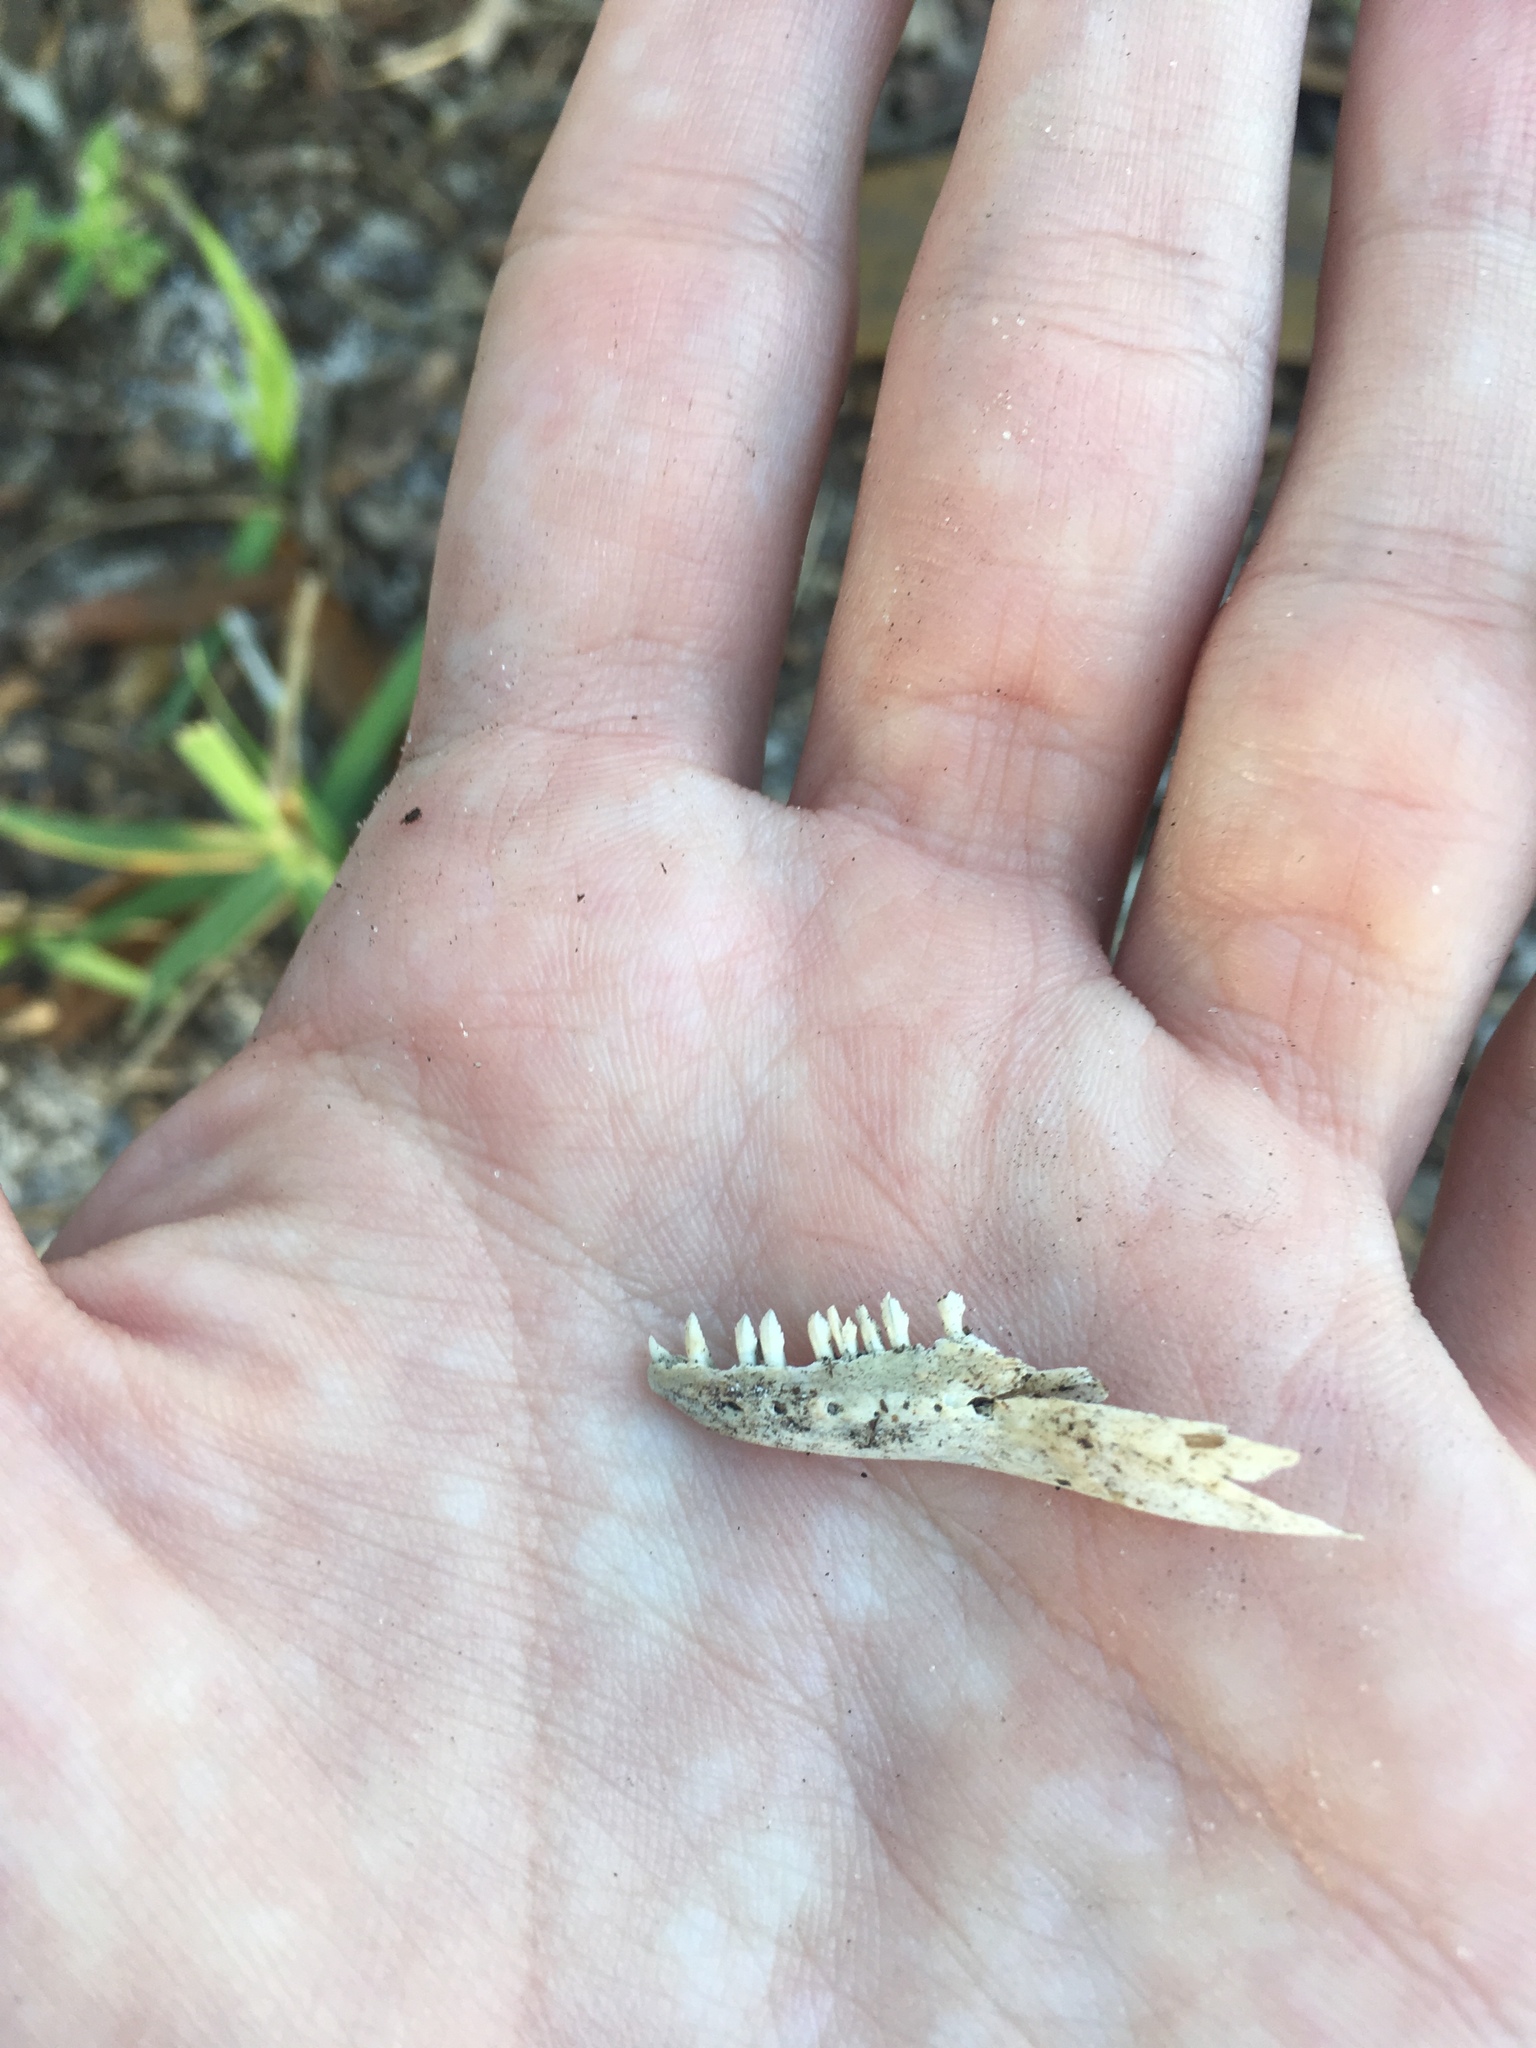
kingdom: Animalia
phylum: Chordata
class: Squamata
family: Iguanidae
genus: Iguana
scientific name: Iguana iguana
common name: Green iguana
